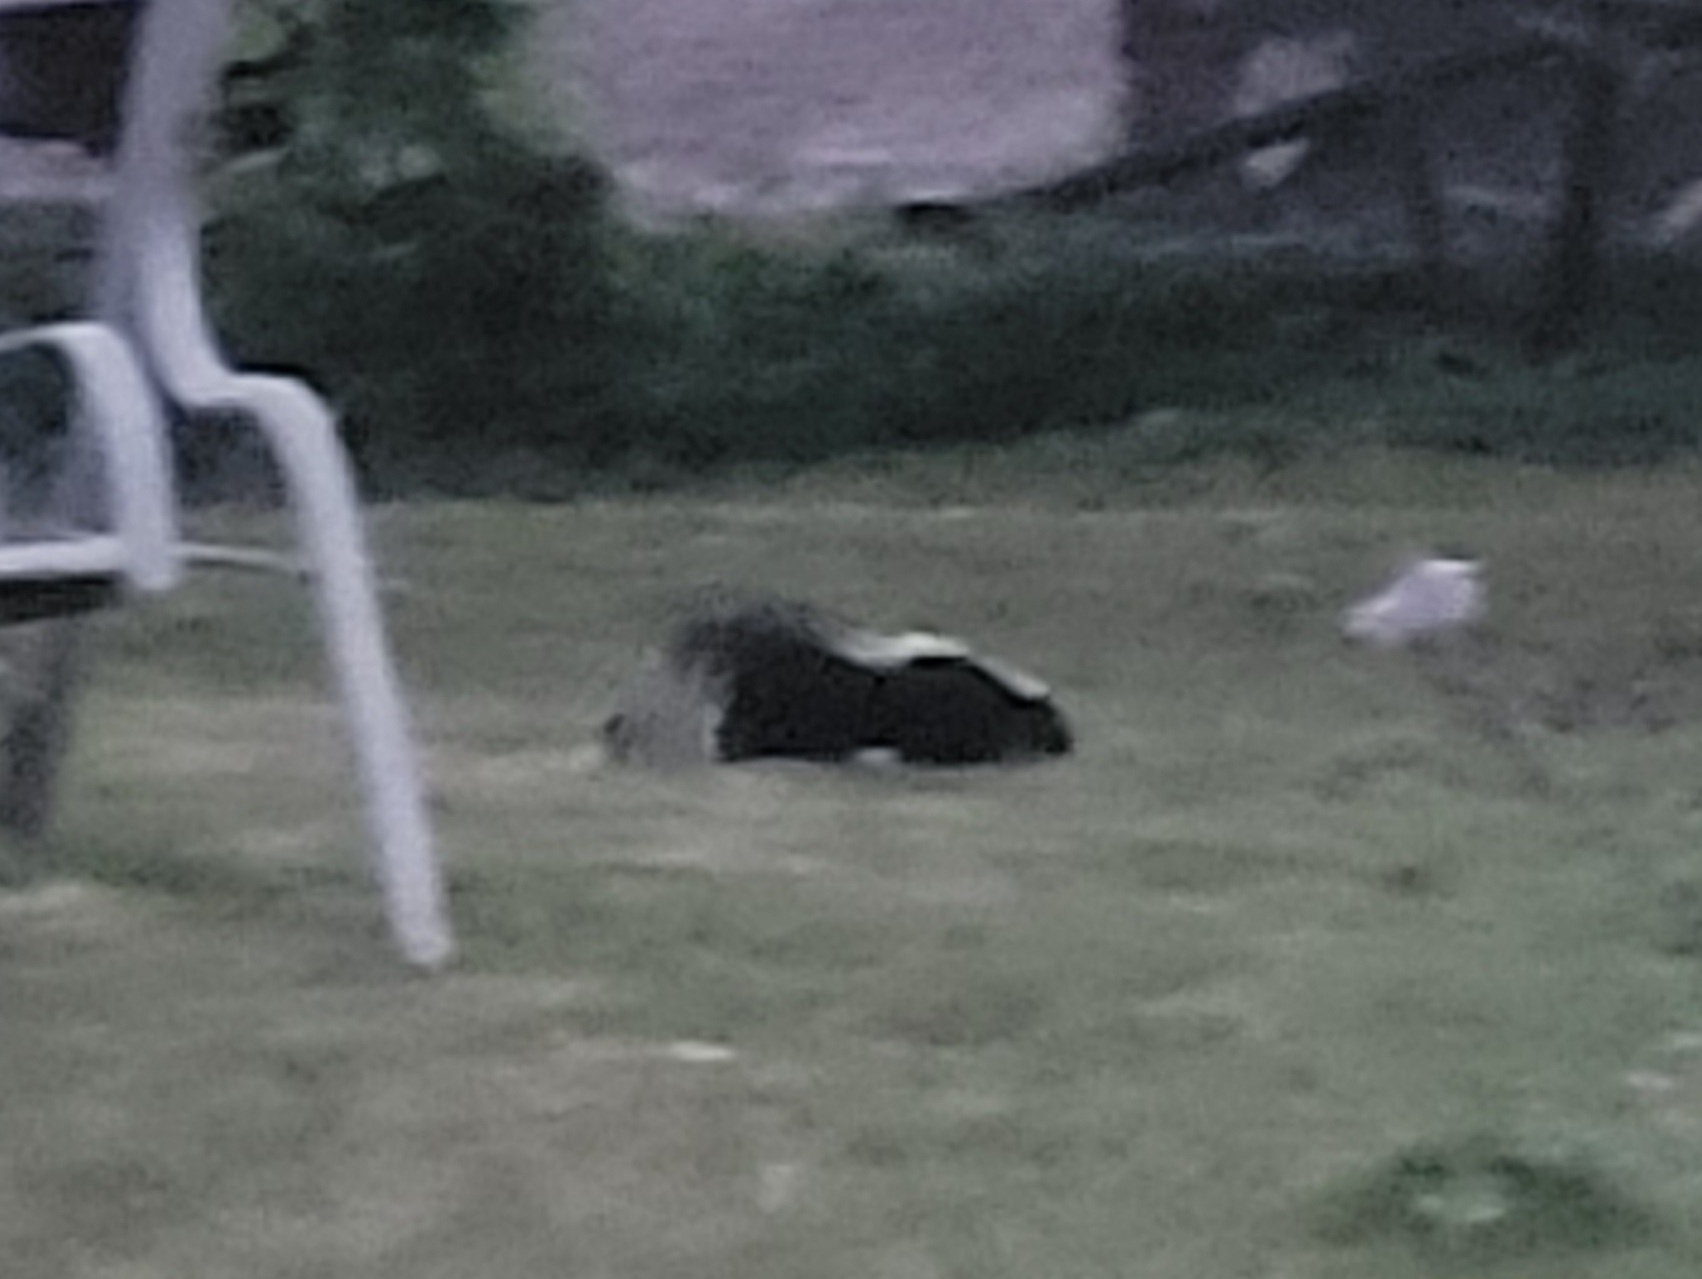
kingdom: Animalia
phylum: Chordata
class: Mammalia
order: Carnivora
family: Mephitidae
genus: Mephitis
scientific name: Mephitis mephitis
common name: Striped skunk
